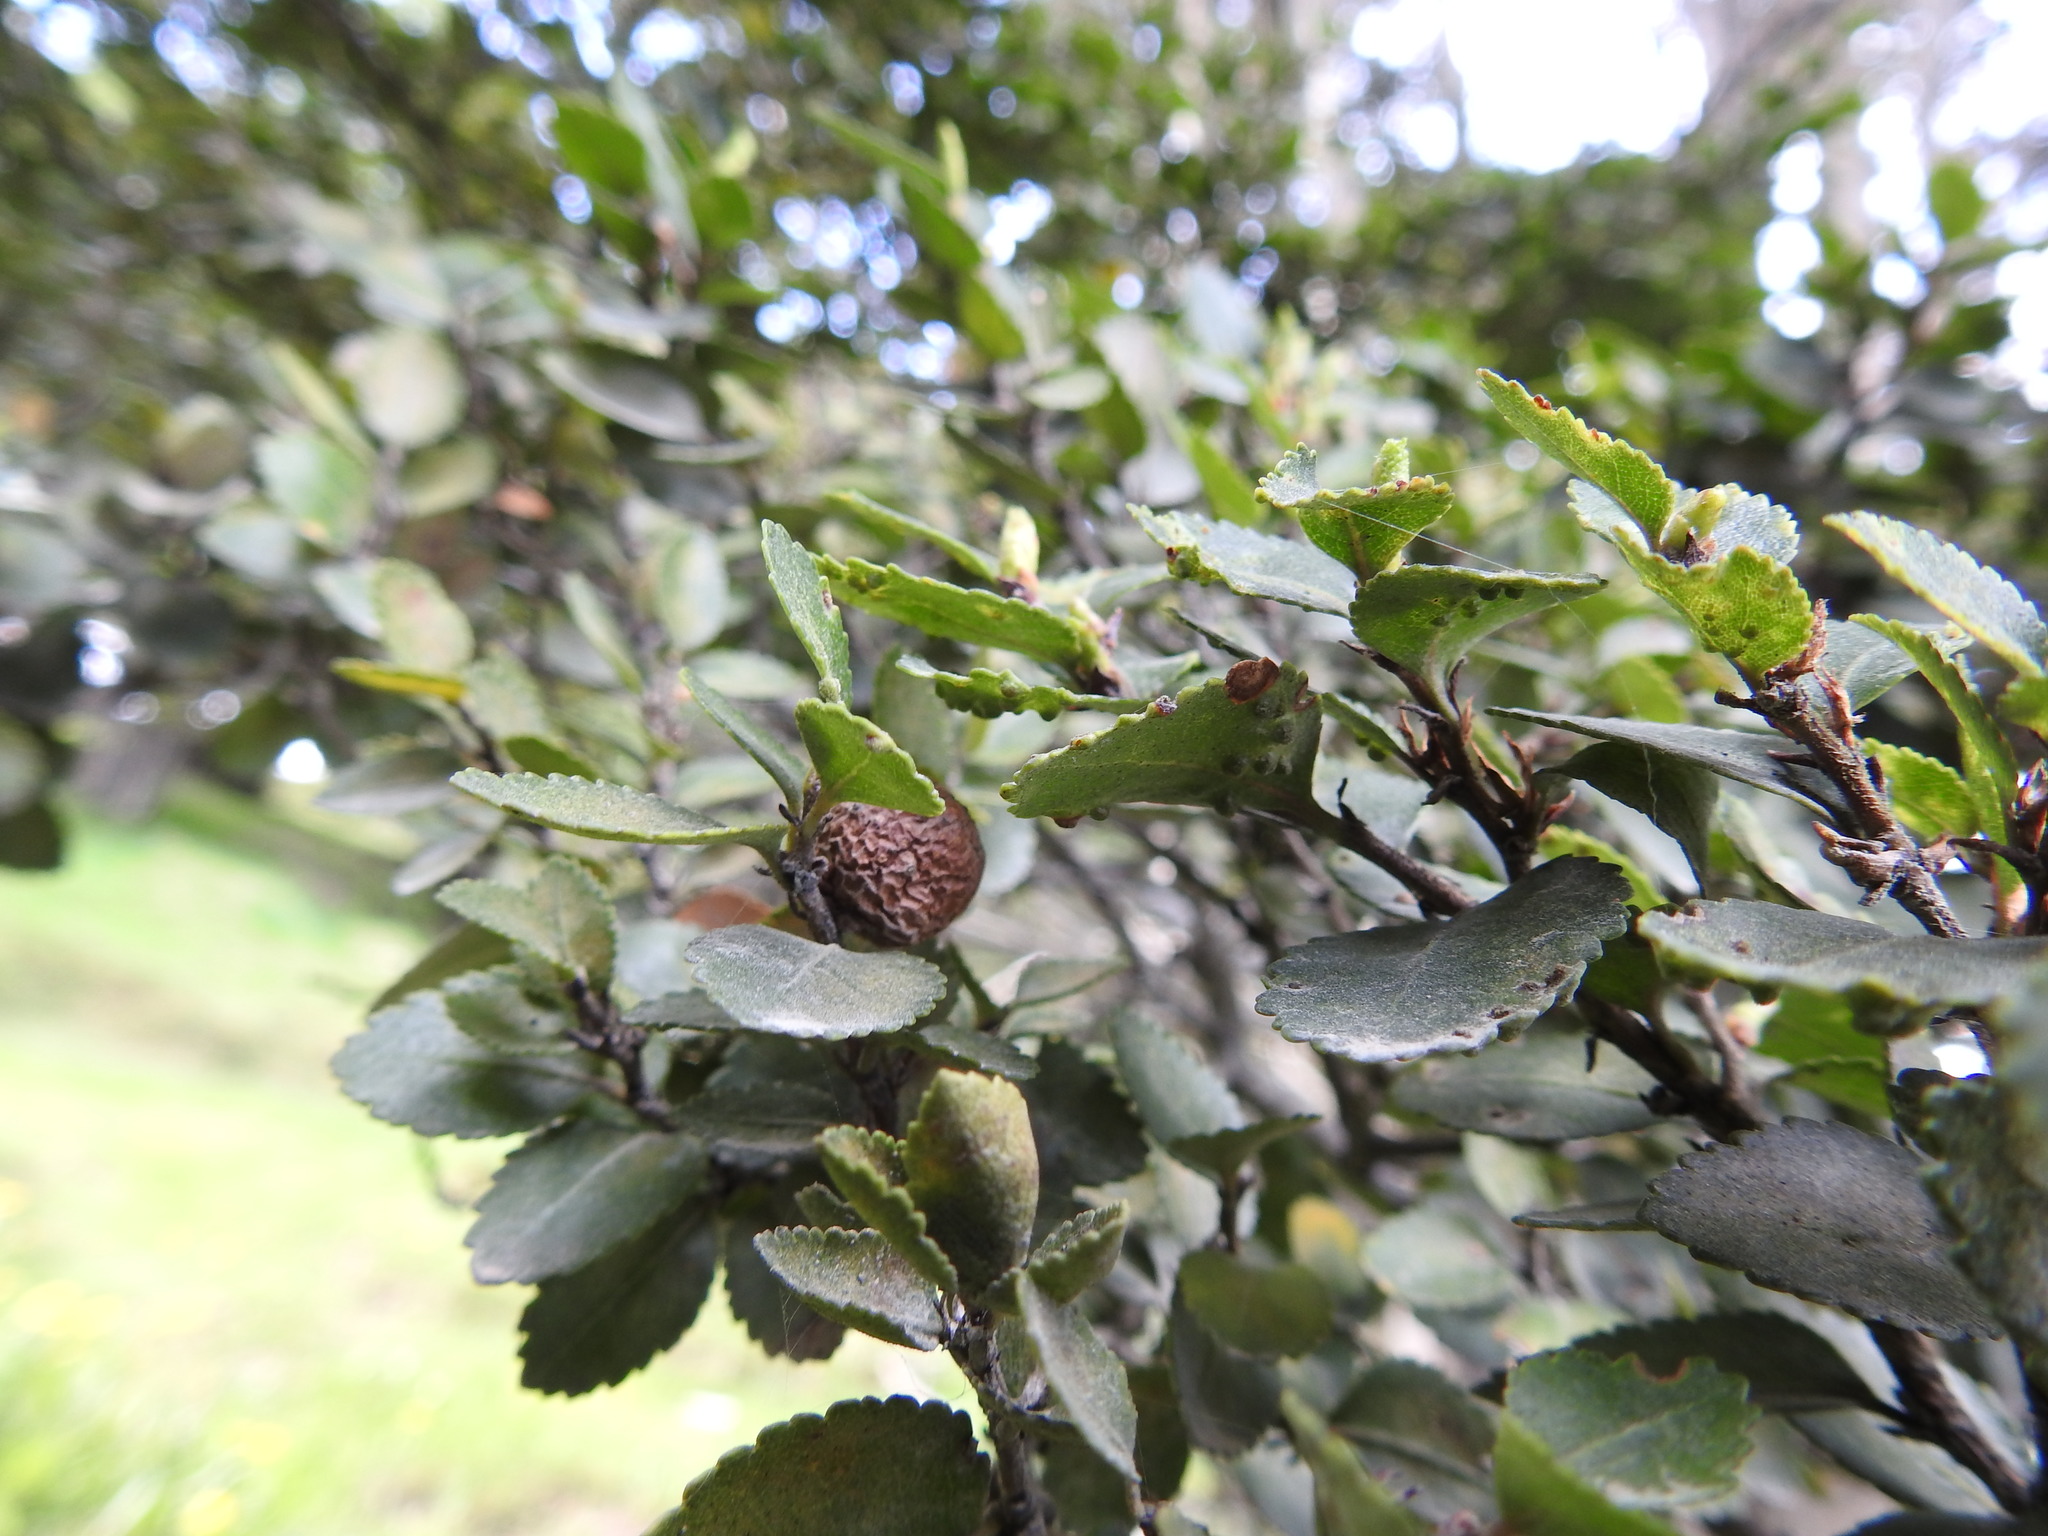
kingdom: Plantae
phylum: Tracheophyta
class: Magnoliopsida
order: Fagales
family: Nothofagaceae
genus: Nothofagus
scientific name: Nothofagus betuloides
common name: Magellan's beech
